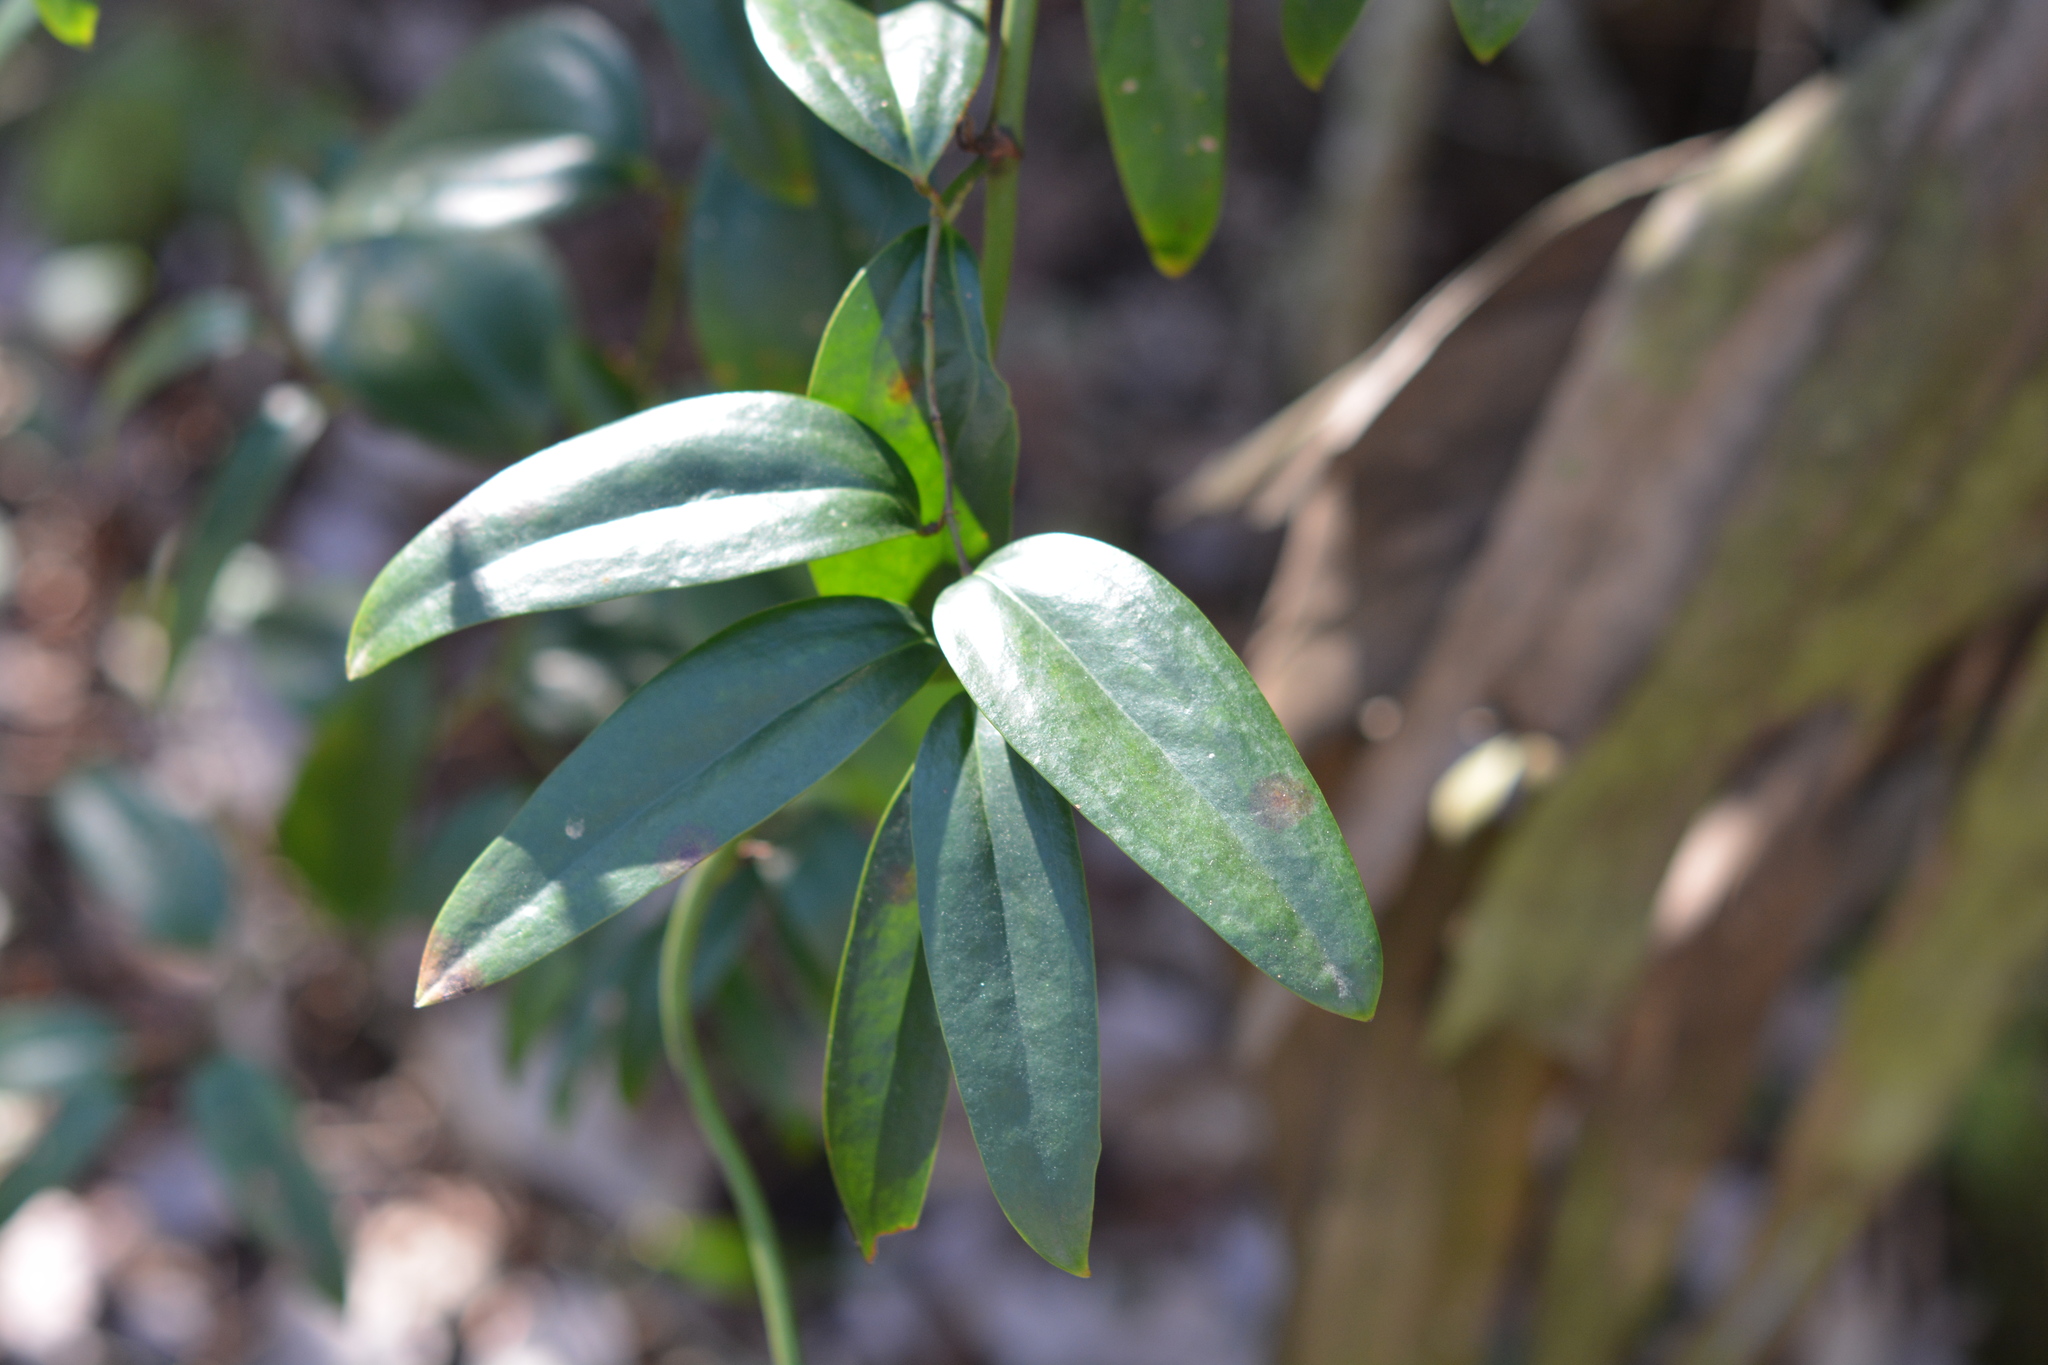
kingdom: Plantae
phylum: Tracheophyta
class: Liliopsida
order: Liliales
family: Smilacaceae
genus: Smilax
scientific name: Smilax maritima
